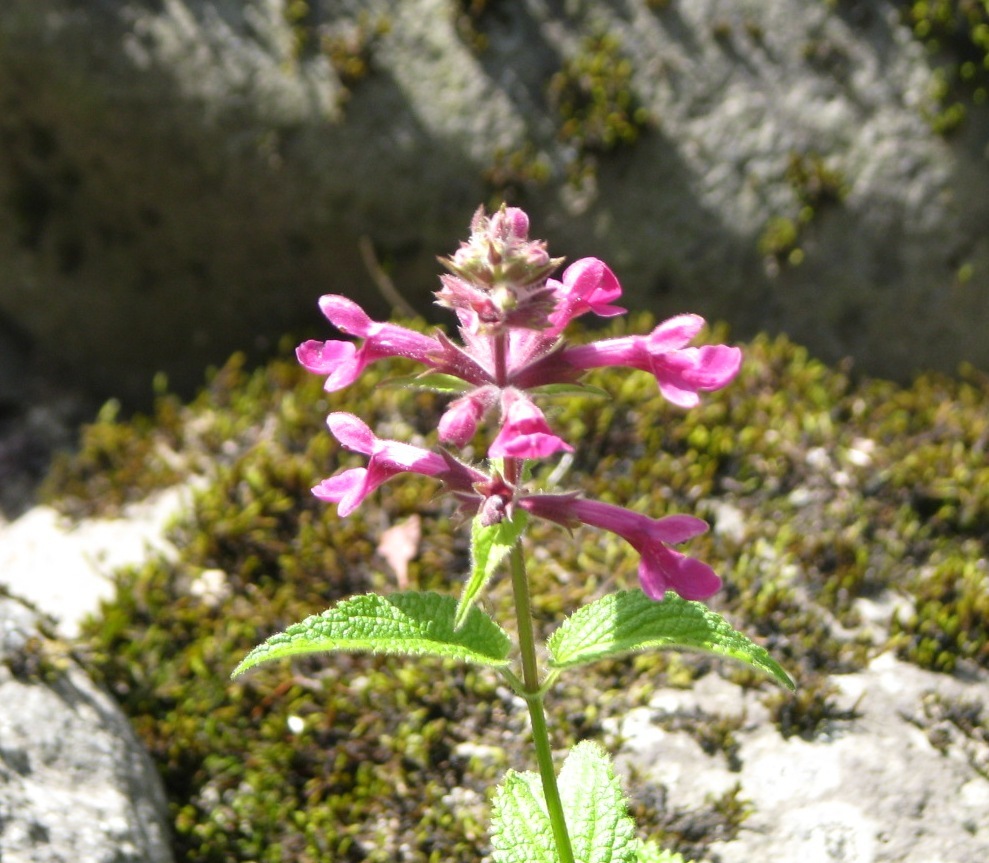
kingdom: Plantae
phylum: Tracheophyta
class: Magnoliopsida
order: Lamiales
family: Lamiaceae
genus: Stachys
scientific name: Stachys chamissonis
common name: Coastal hedge-nettle
